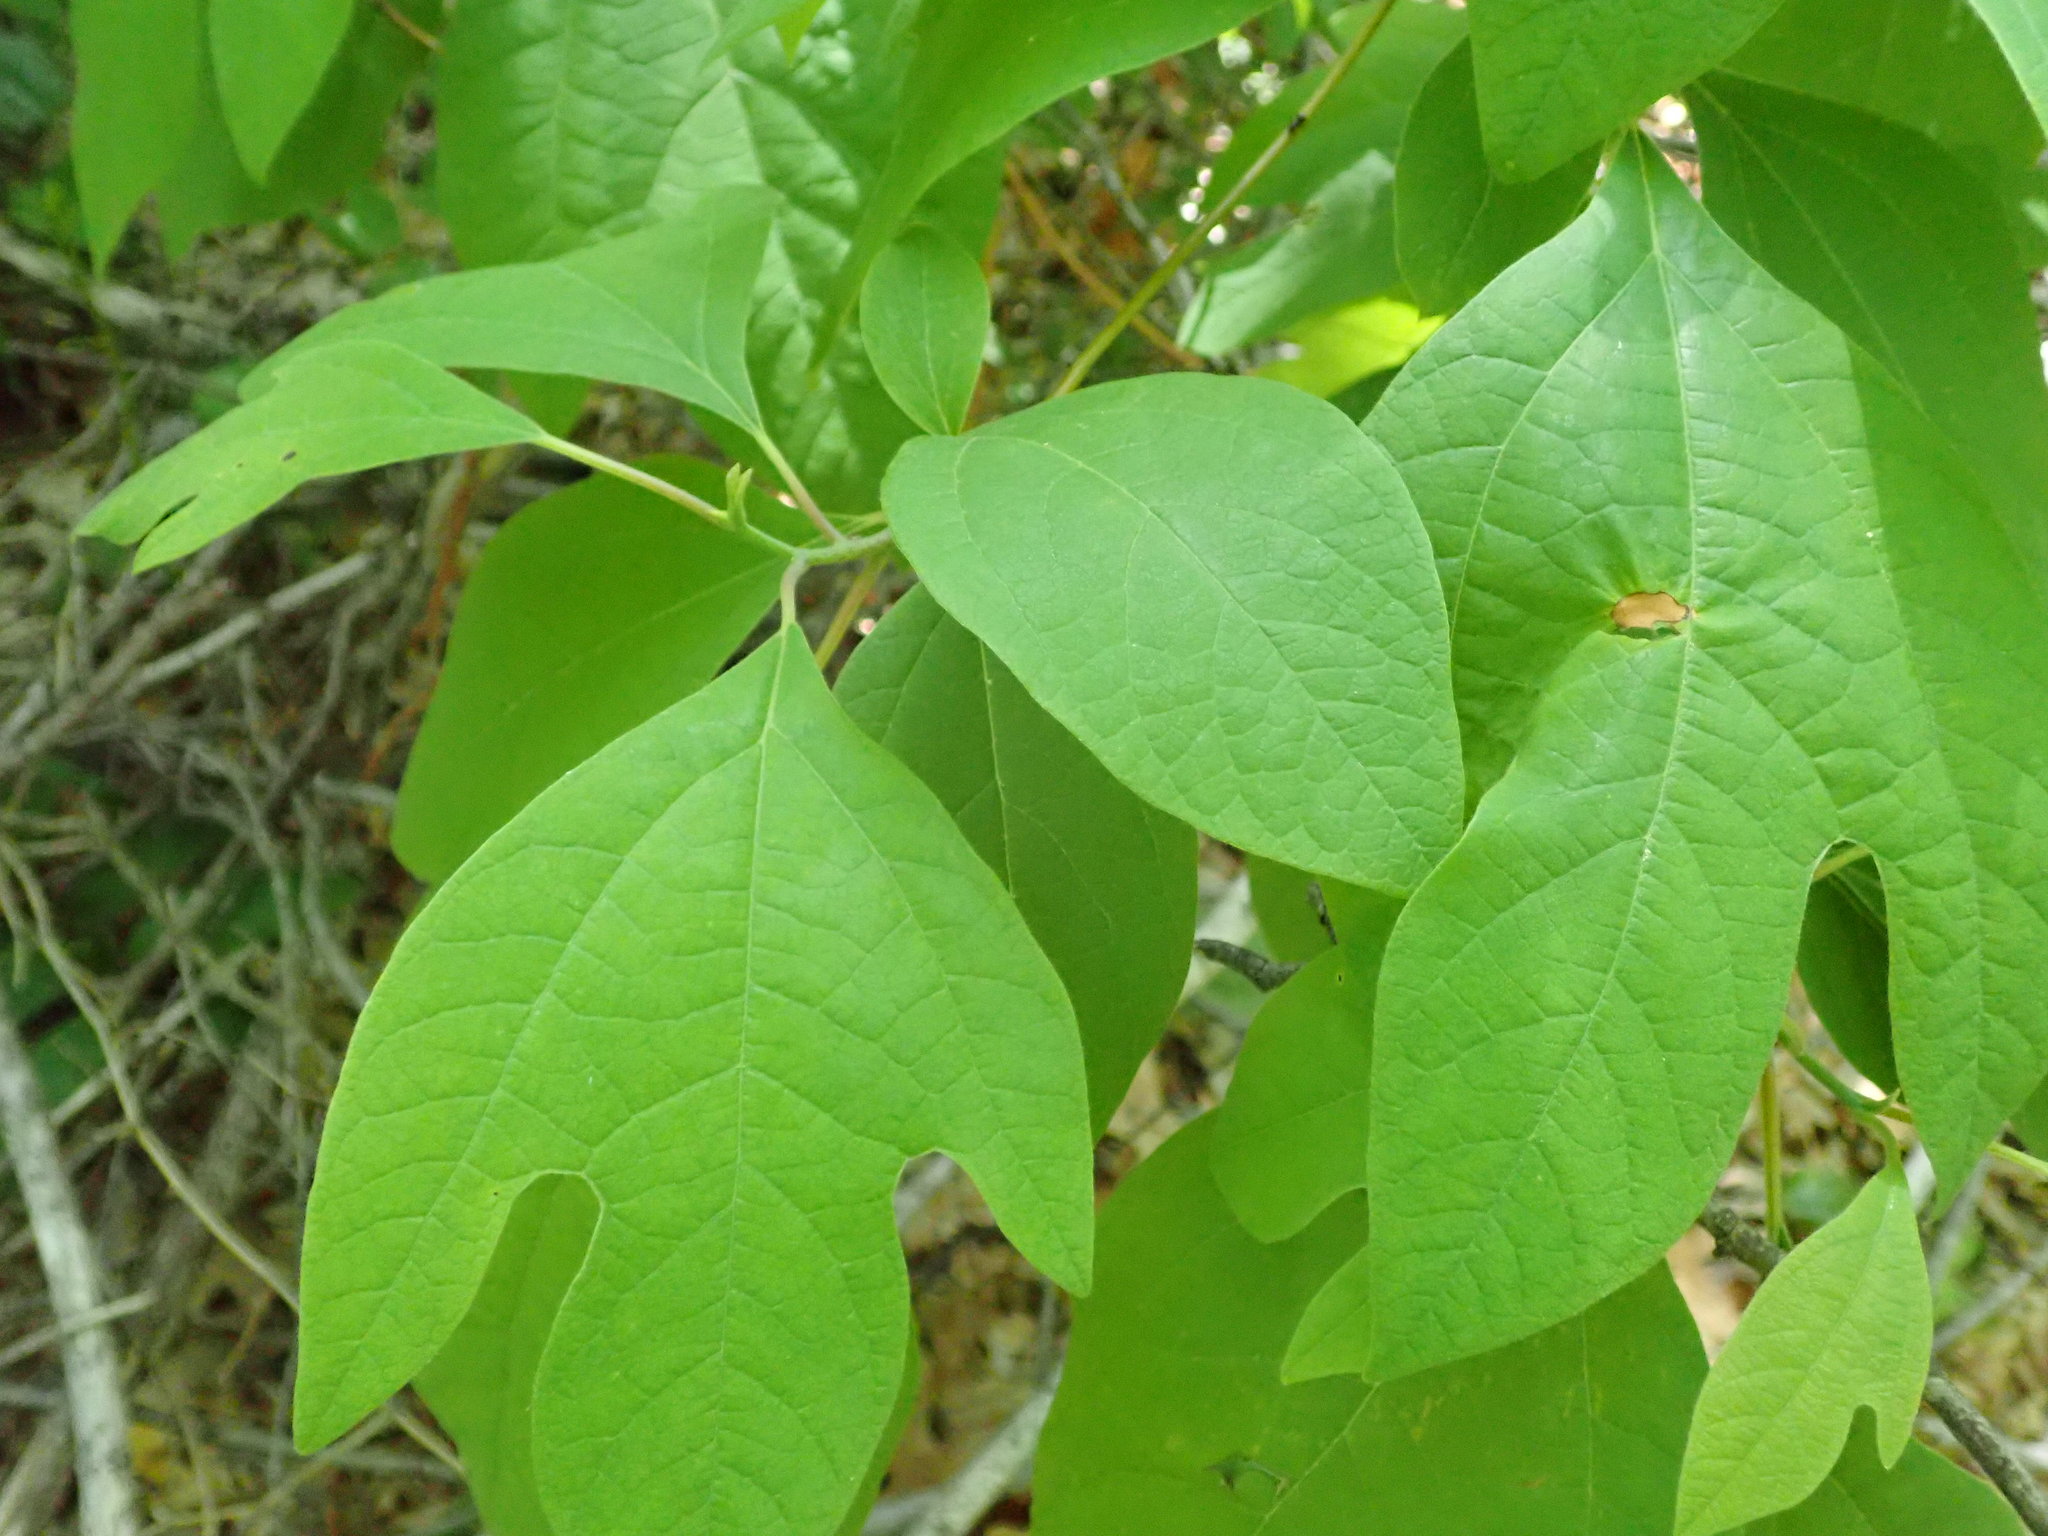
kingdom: Plantae
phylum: Tracheophyta
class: Magnoliopsida
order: Laurales
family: Lauraceae
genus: Sassafras
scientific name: Sassafras albidum
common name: Sassafras
